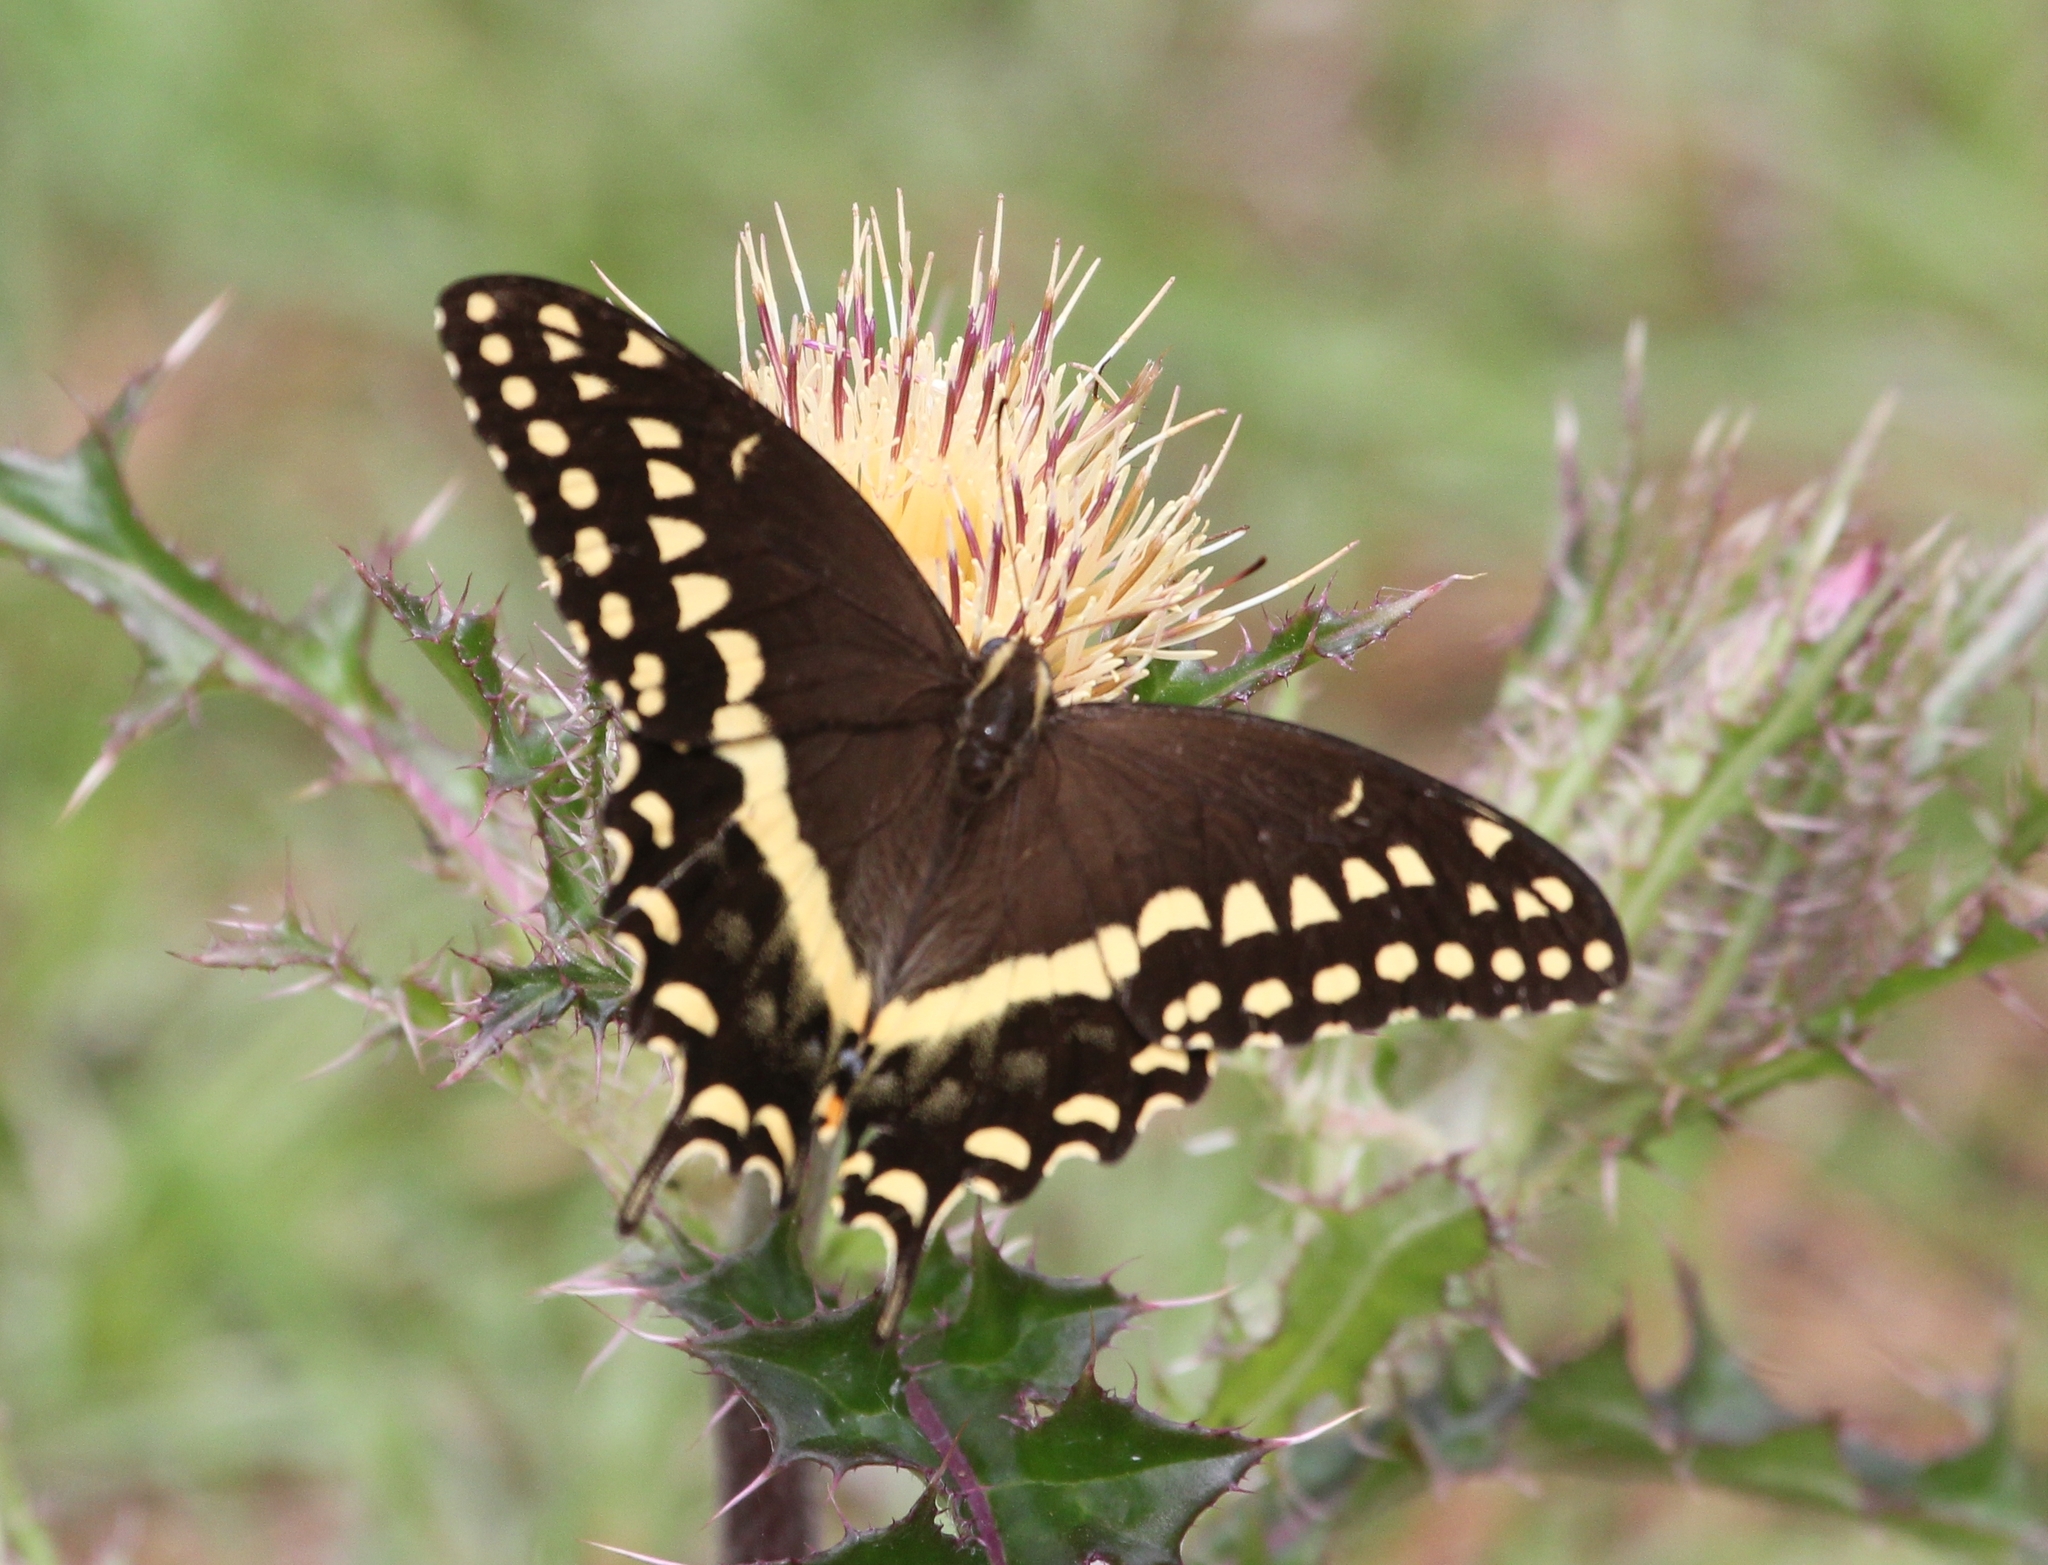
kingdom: Animalia
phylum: Arthropoda
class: Insecta
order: Lepidoptera
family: Papilionidae
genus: Papilio
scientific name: Papilio palamedes
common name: Palamedes swallowtail
